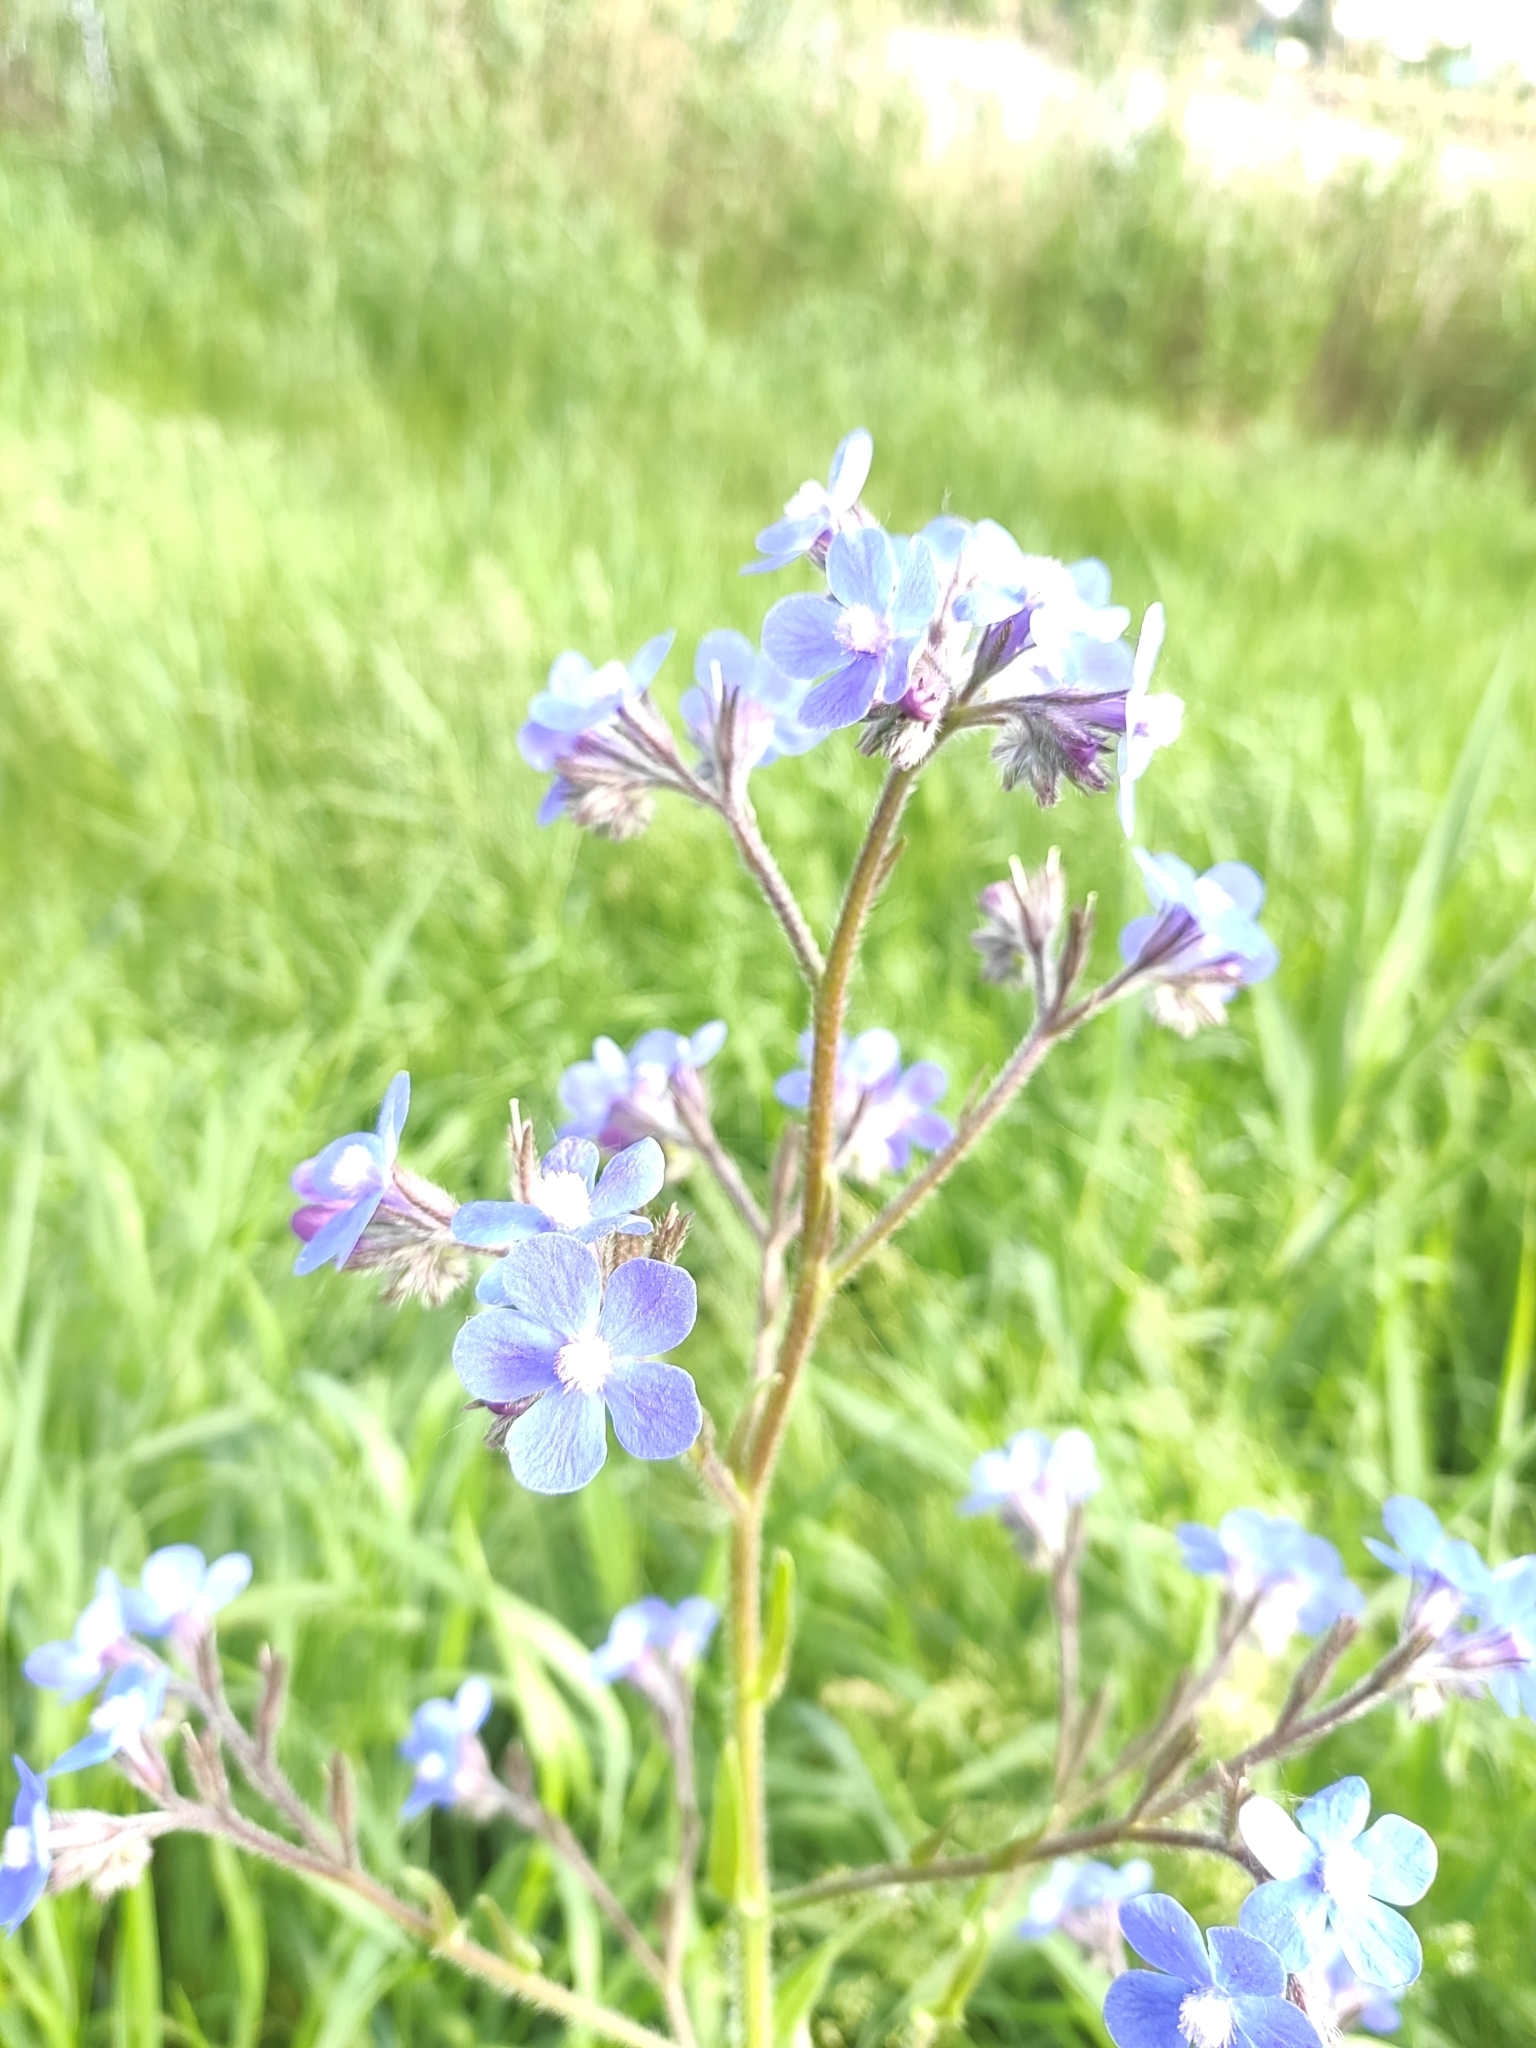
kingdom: Plantae
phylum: Tracheophyta
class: Magnoliopsida
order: Boraginales
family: Boraginaceae
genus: Anchusa
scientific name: Anchusa azurea
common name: Garden anchusa
